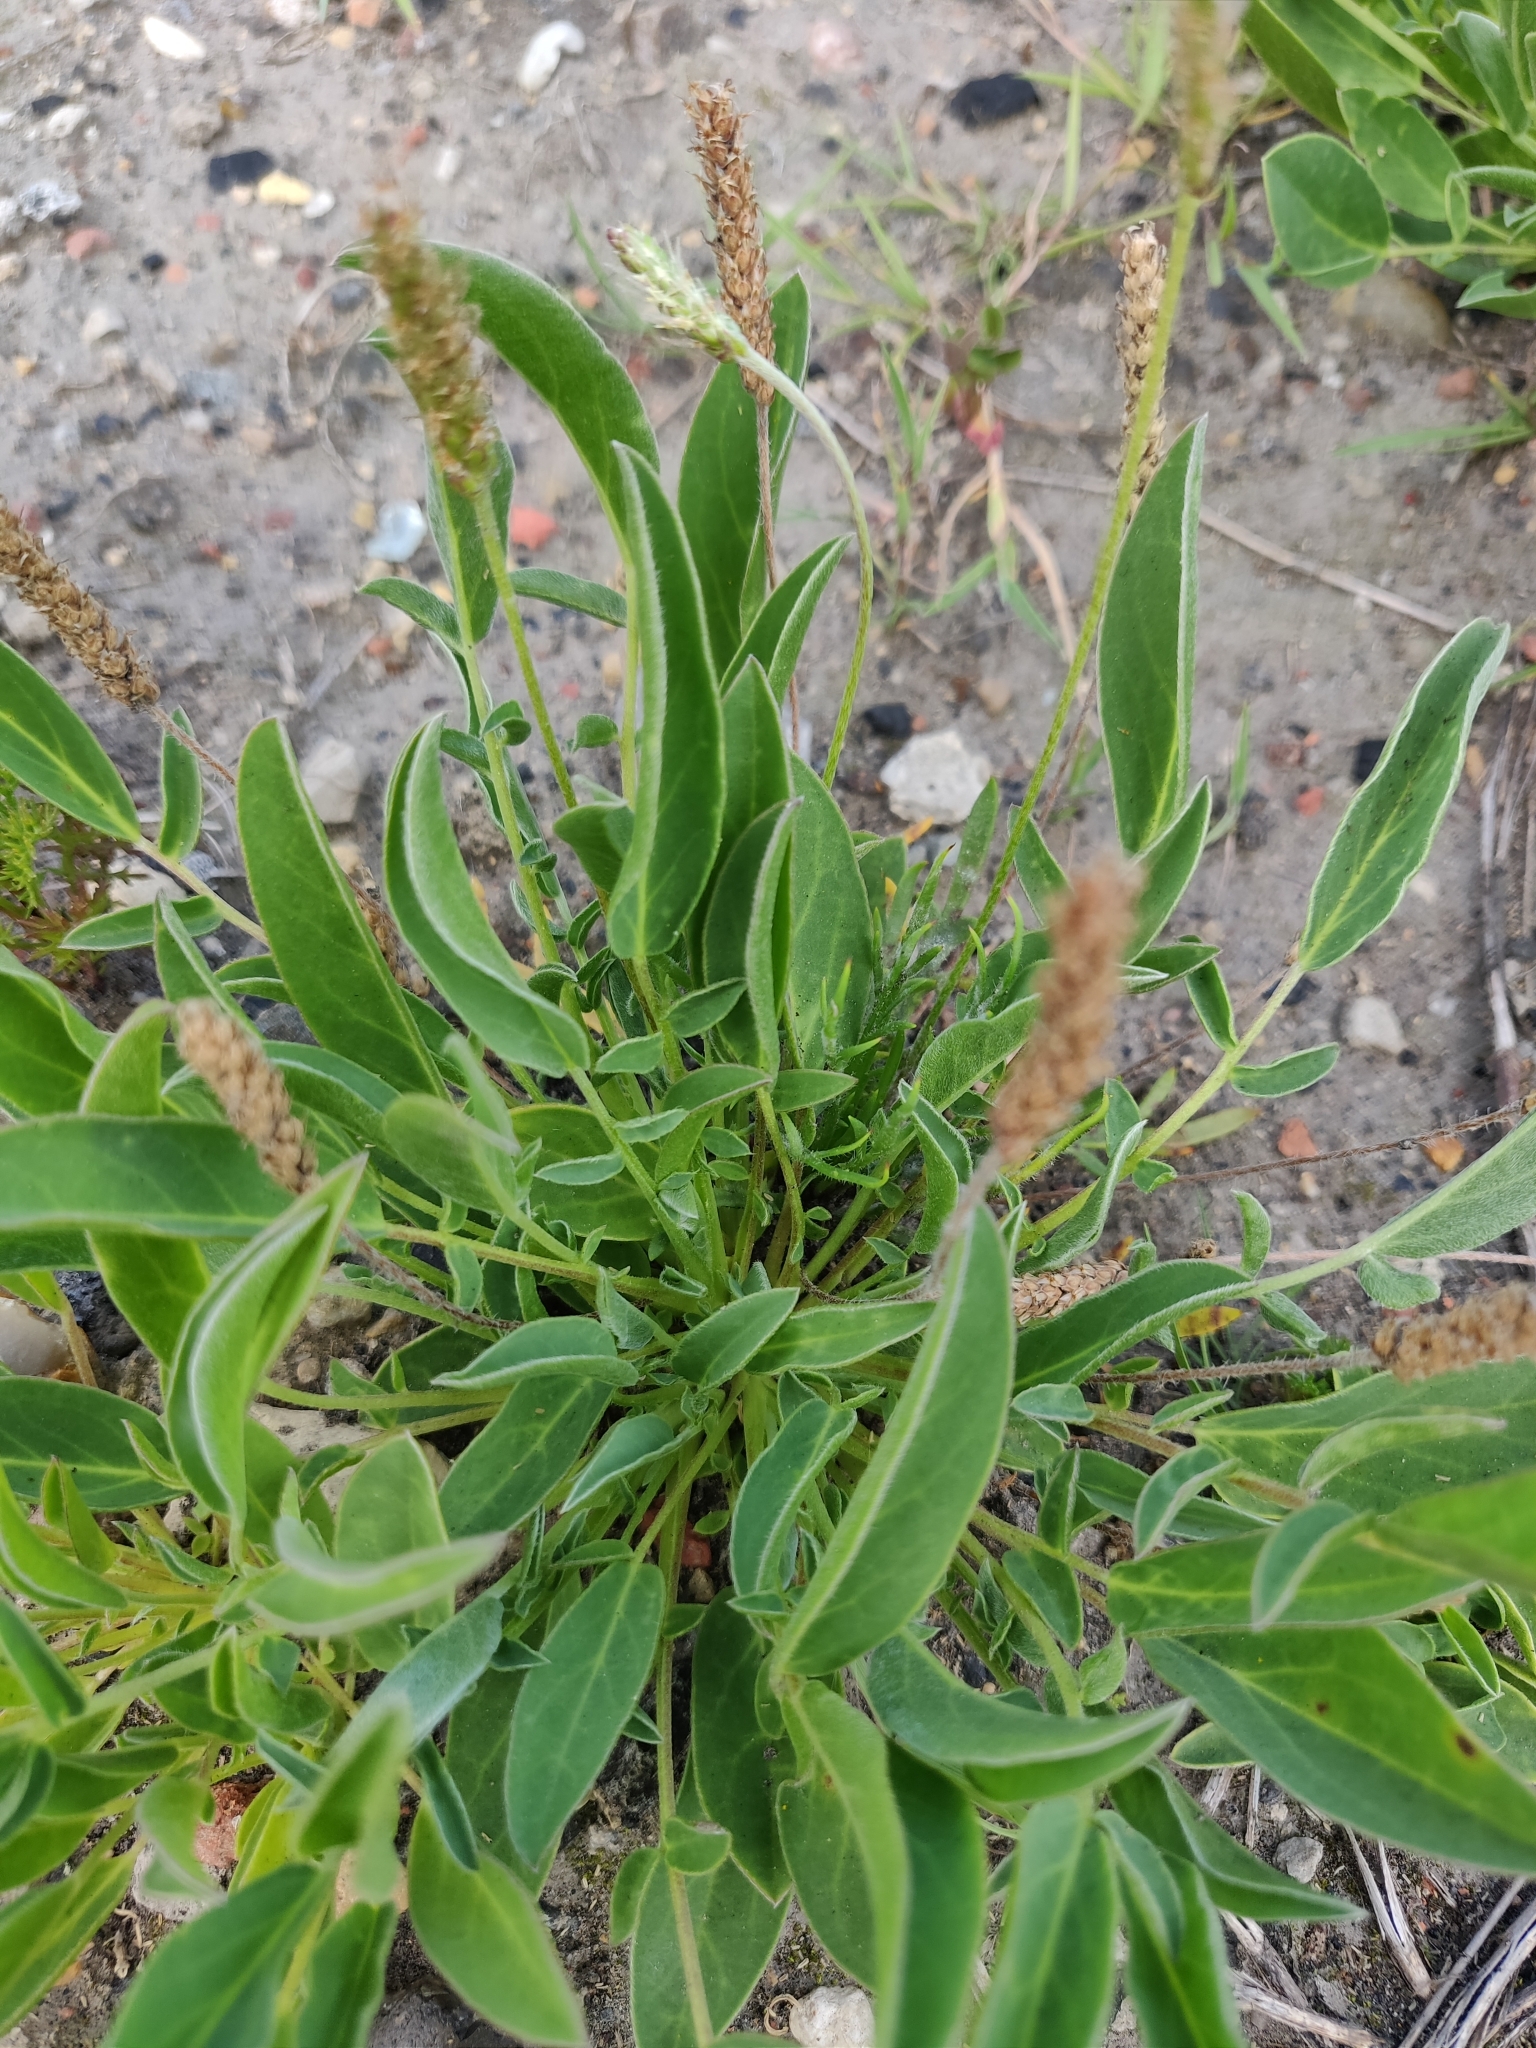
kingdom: Plantae
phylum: Tracheophyta
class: Magnoliopsida
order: Fabales
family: Fabaceae
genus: Anthyllis
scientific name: Anthyllis vulneraria
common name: Kidney vetch
